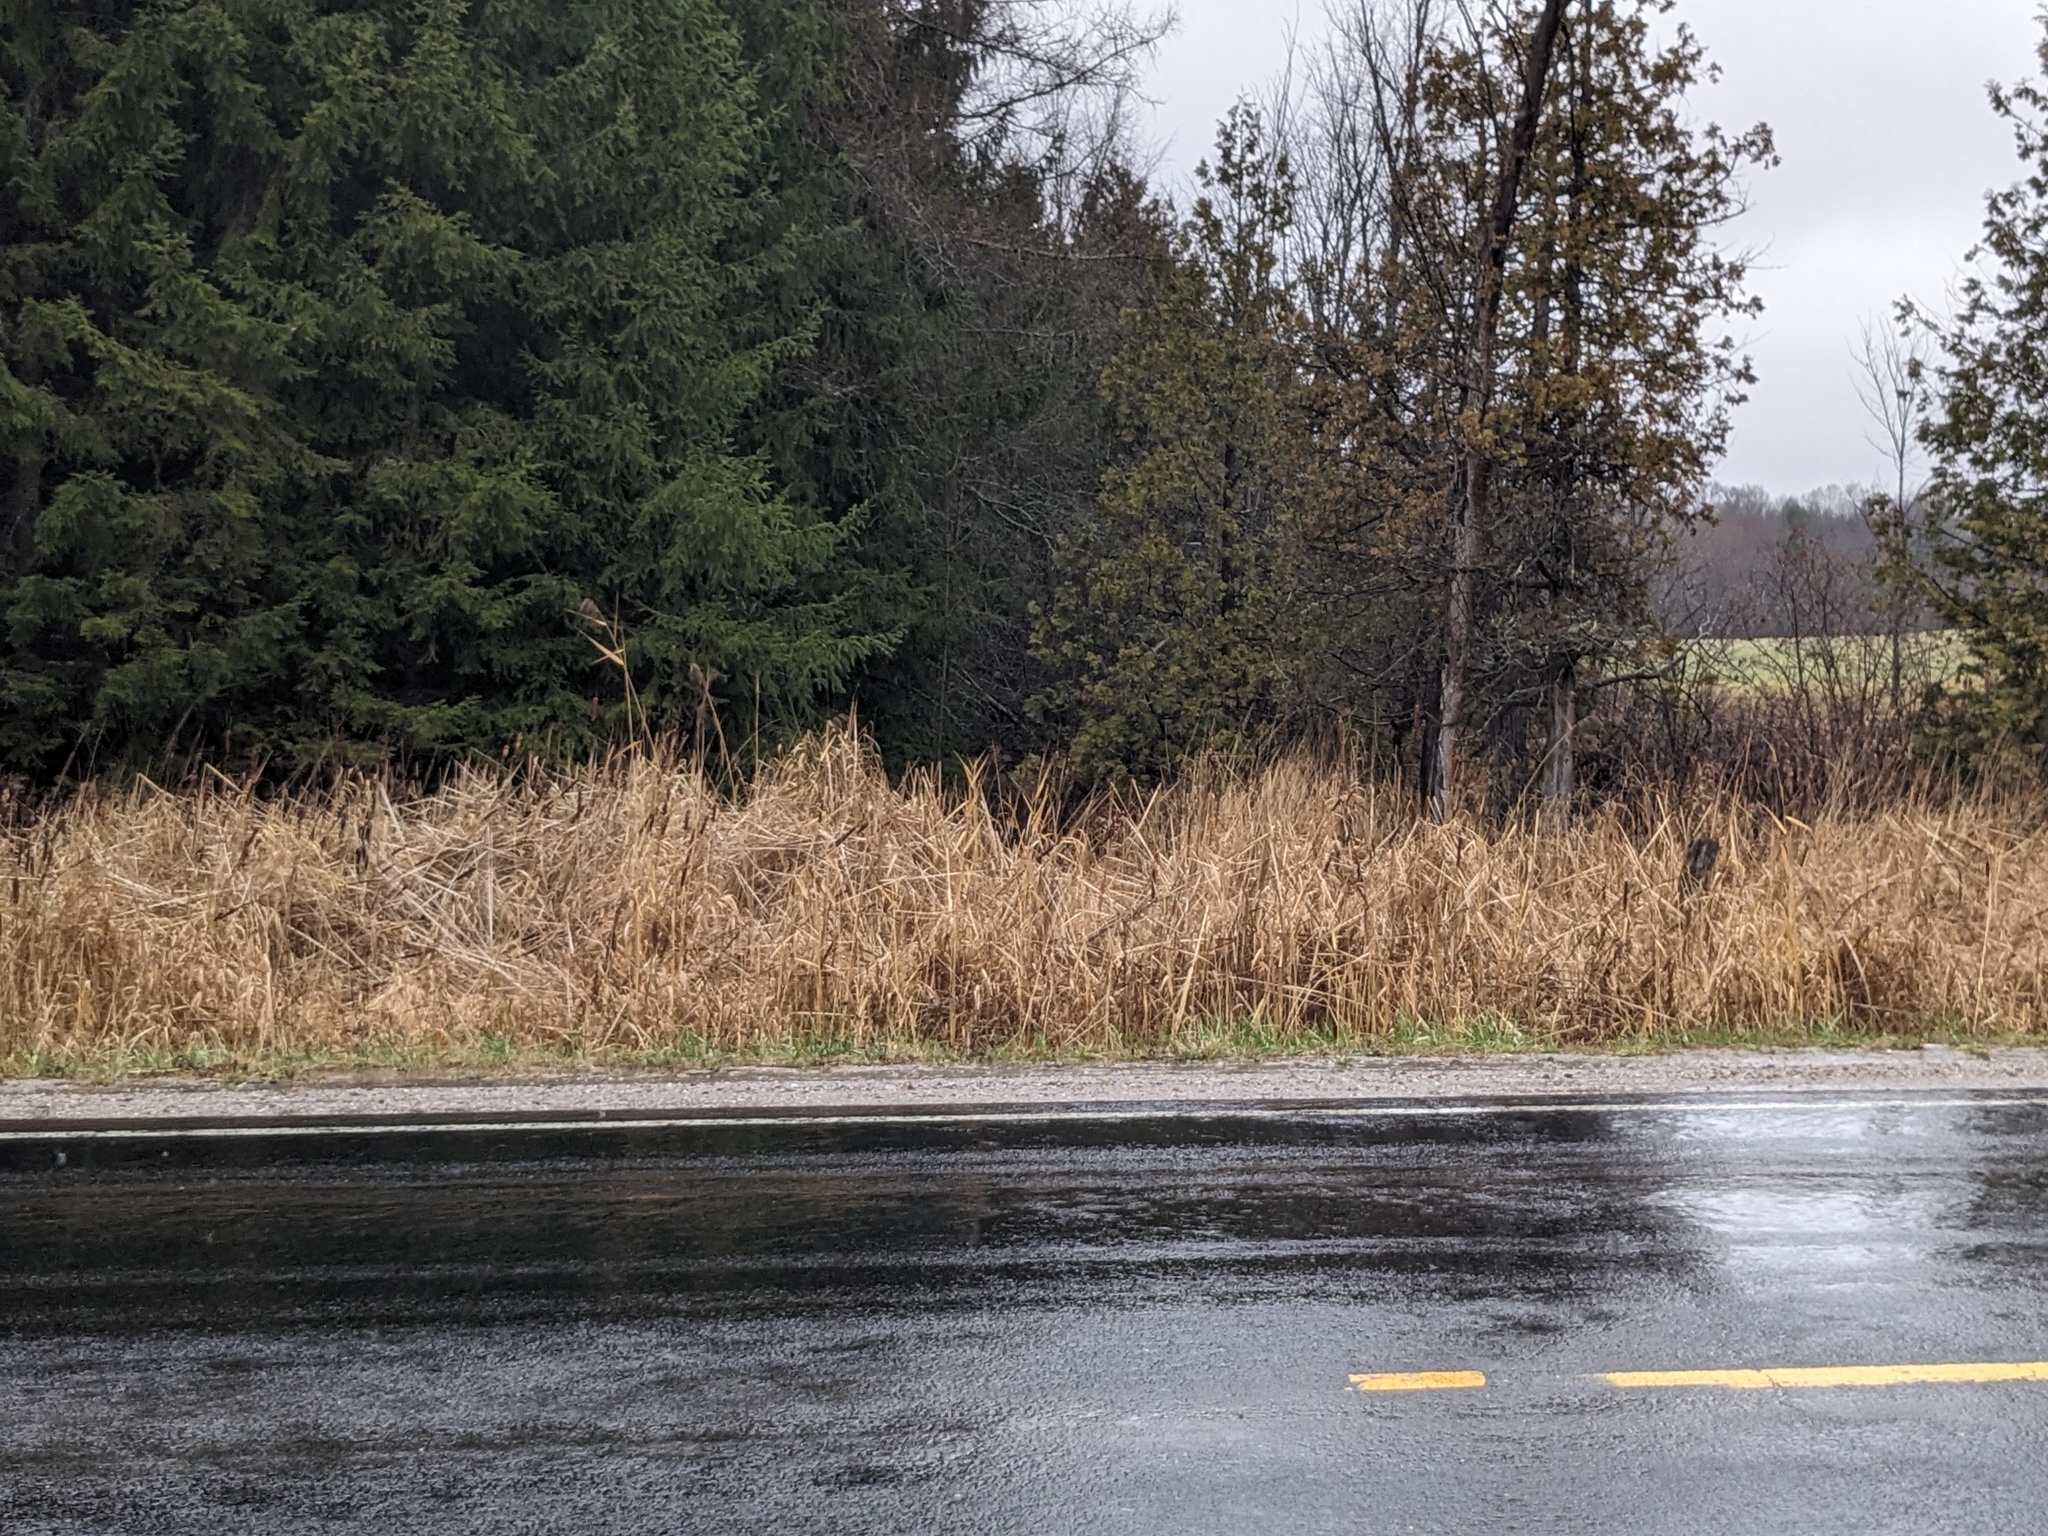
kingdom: Plantae
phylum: Tracheophyta
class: Liliopsida
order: Poales
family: Poaceae
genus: Phragmites
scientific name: Phragmites australis
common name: Common reed
